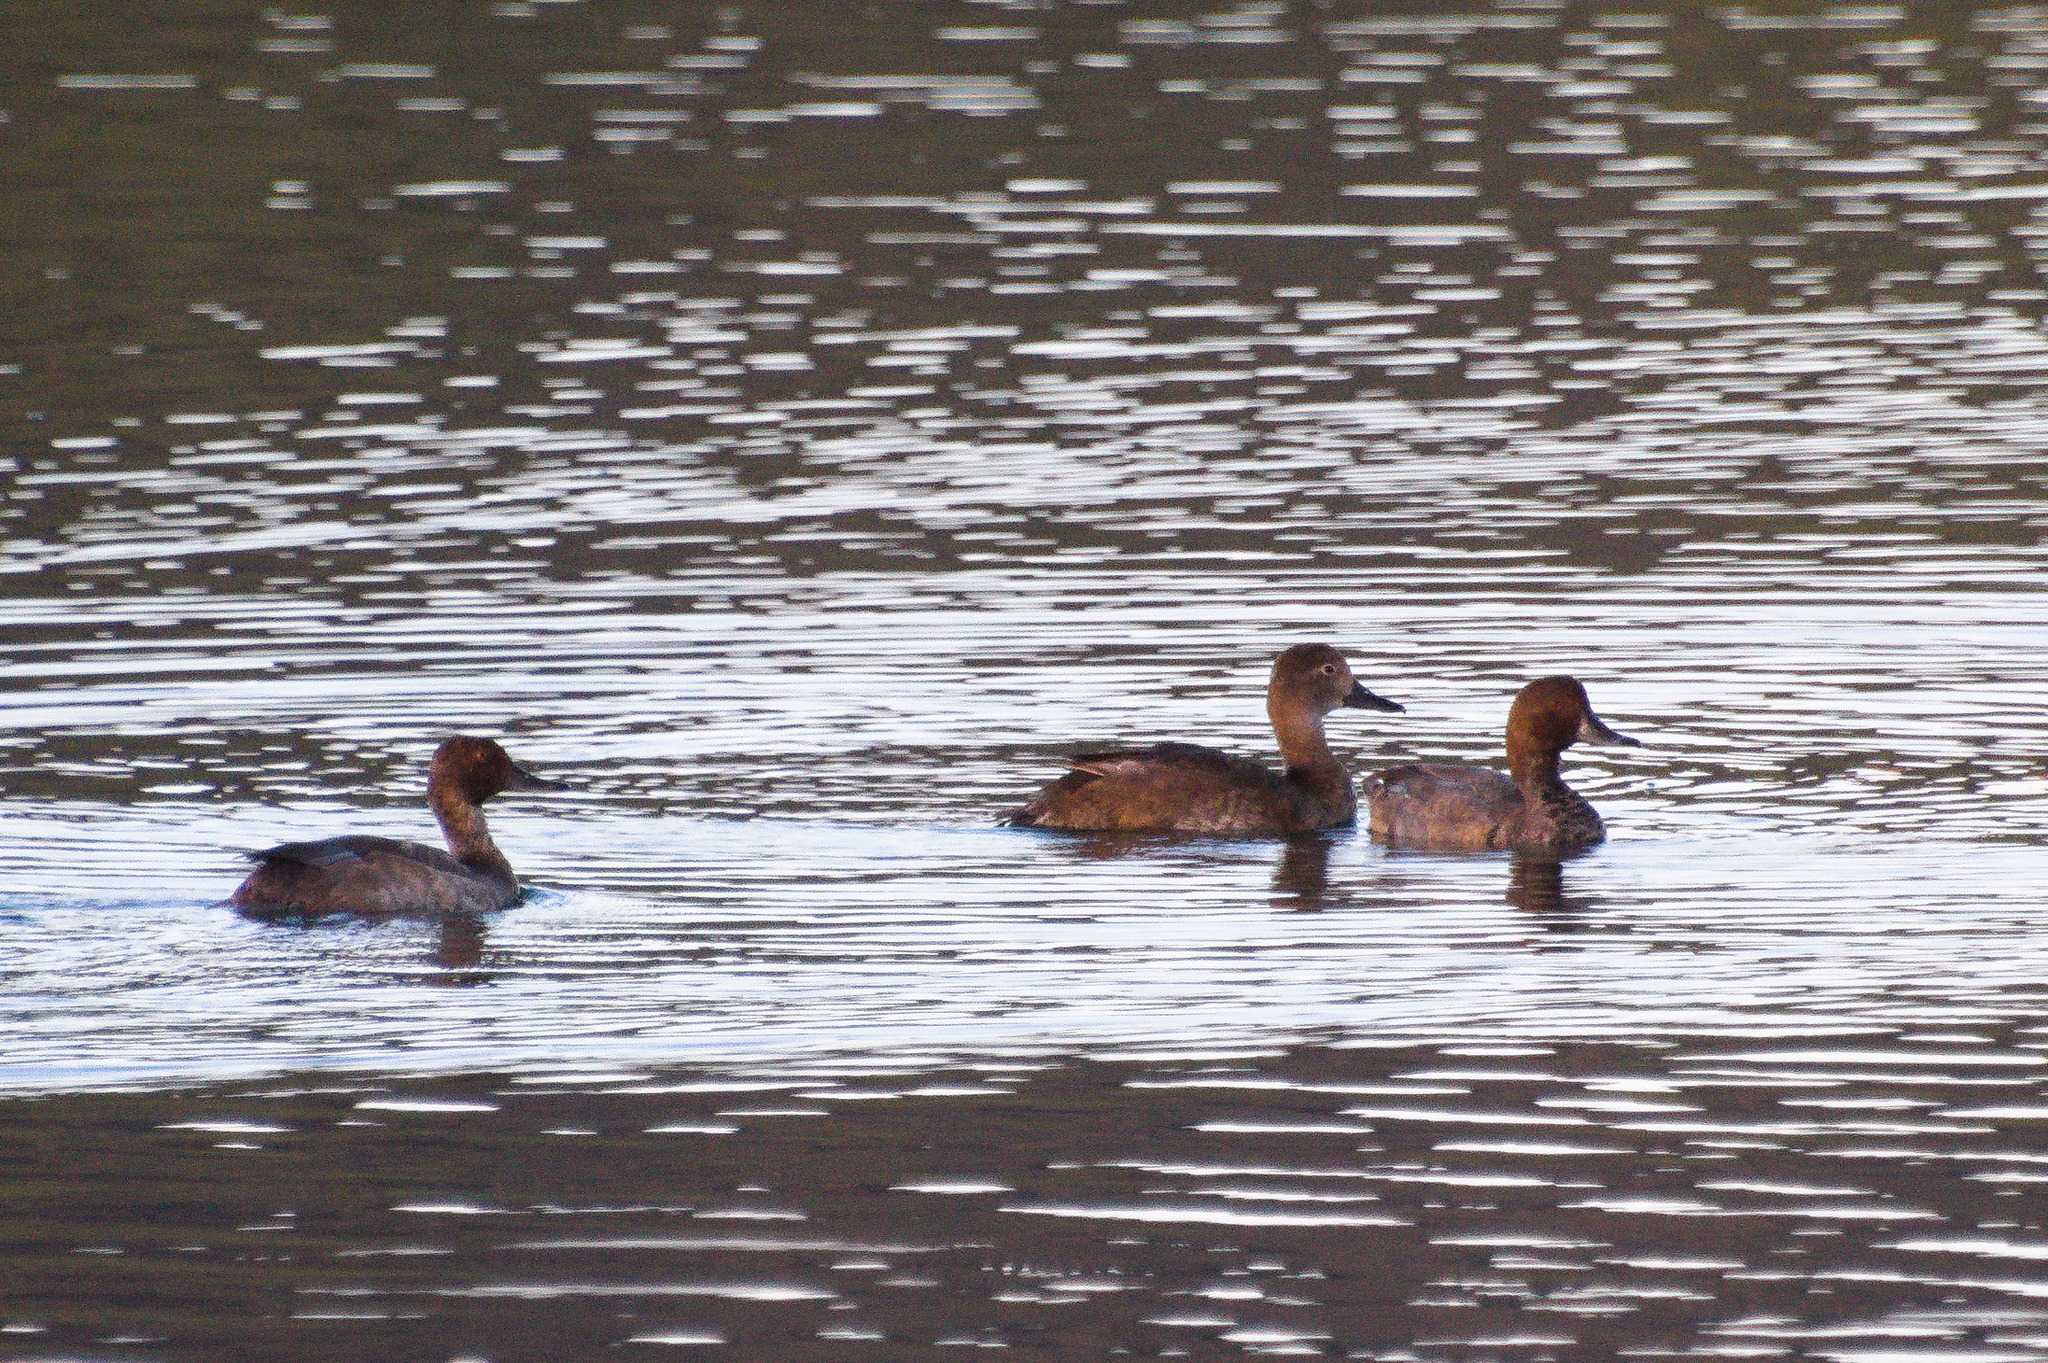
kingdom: Animalia
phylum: Chordata
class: Aves
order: Anseriformes
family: Anatidae
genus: Aythya
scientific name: Aythya americana
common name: Redhead
